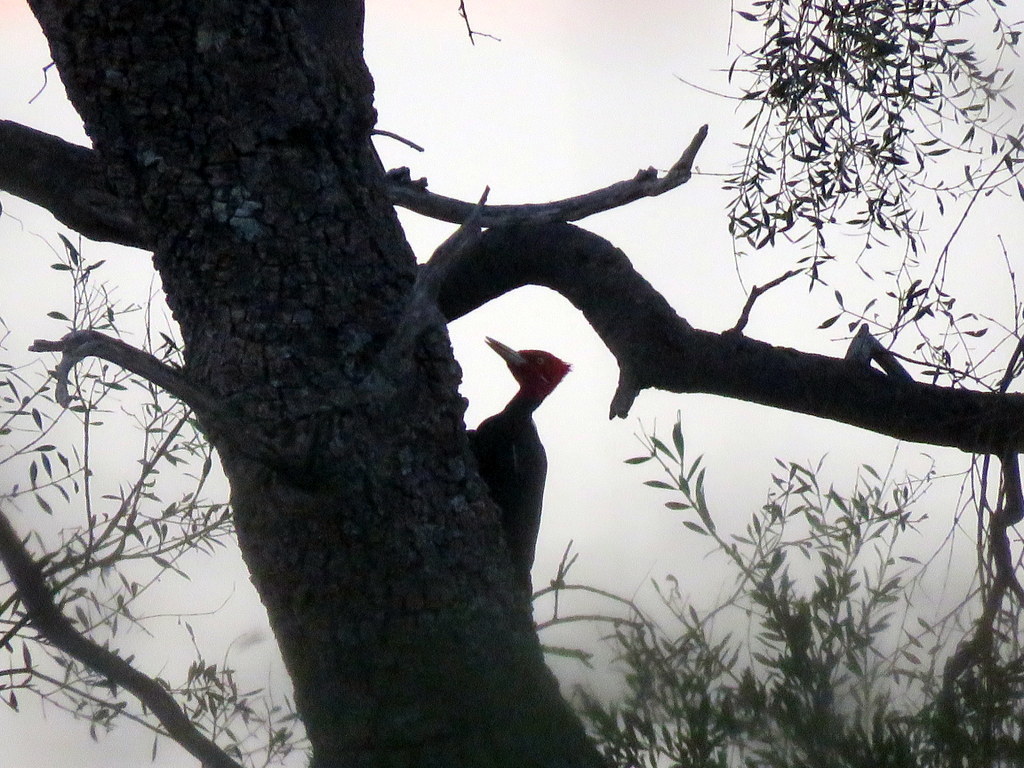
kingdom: Animalia
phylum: Chordata
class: Aves
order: Piciformes
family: Picidae
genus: Campephilus
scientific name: Campephilus leucopogon
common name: Cream-backed woodpecker
